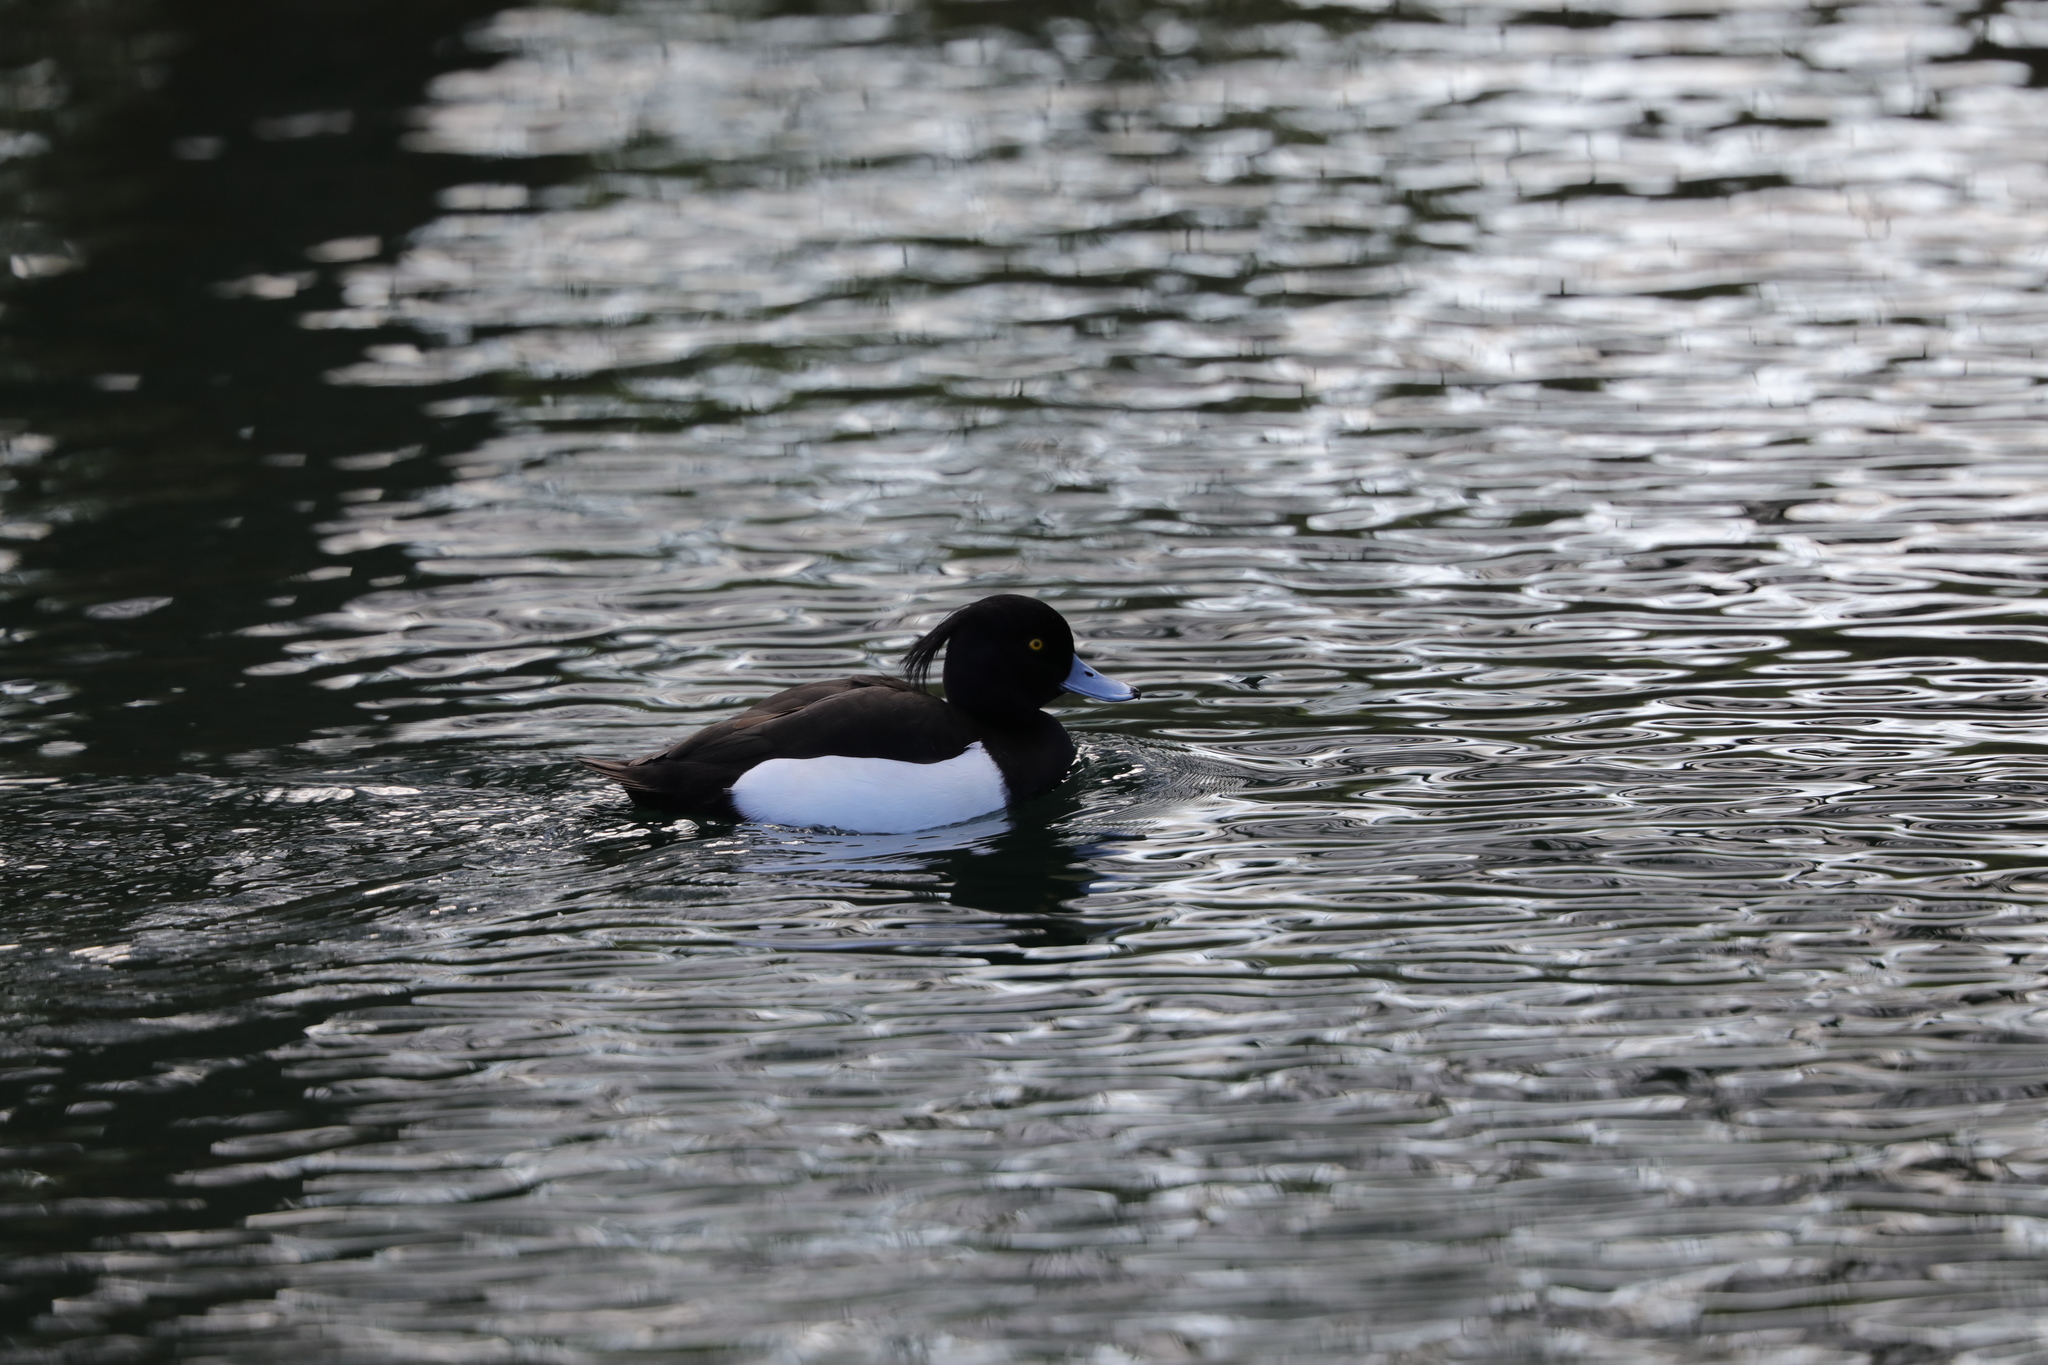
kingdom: Animalia
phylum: Chordata
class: Aves
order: Anseriformes
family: Anatidae
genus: Aythya
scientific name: Aythya fuligula
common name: Tufted duck
